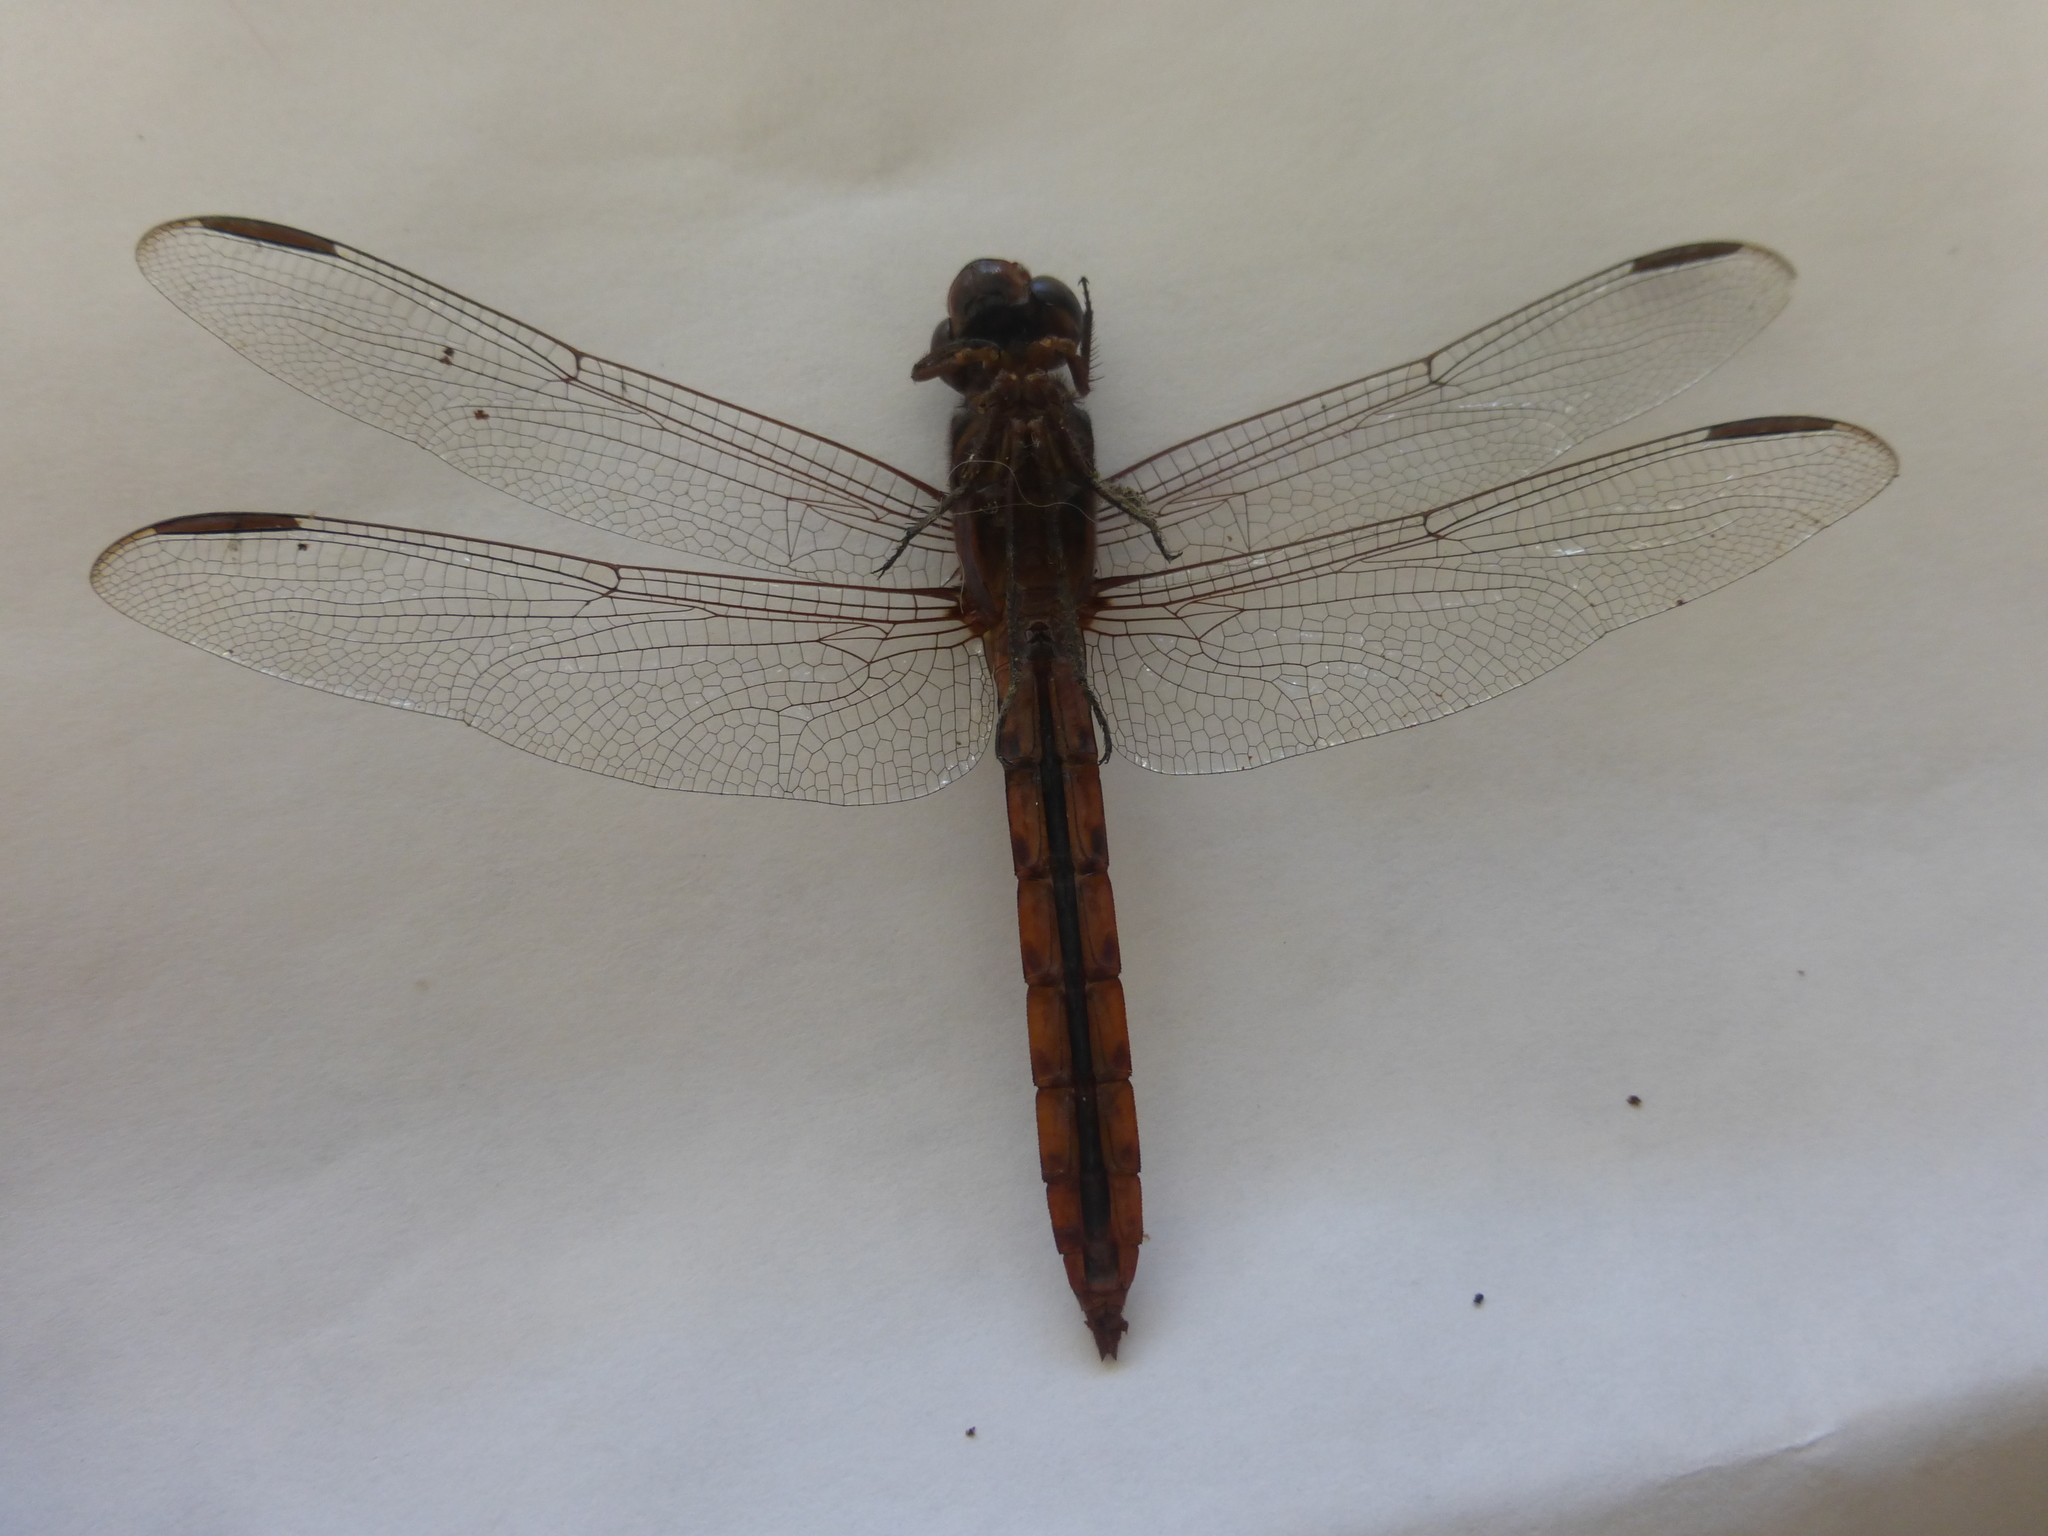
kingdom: Animalia
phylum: Arthropoda
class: Insecta
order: Odonata
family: Libellulidae
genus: Orthemis
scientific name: Orthemis ferruginea
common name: Roseate skimmer
